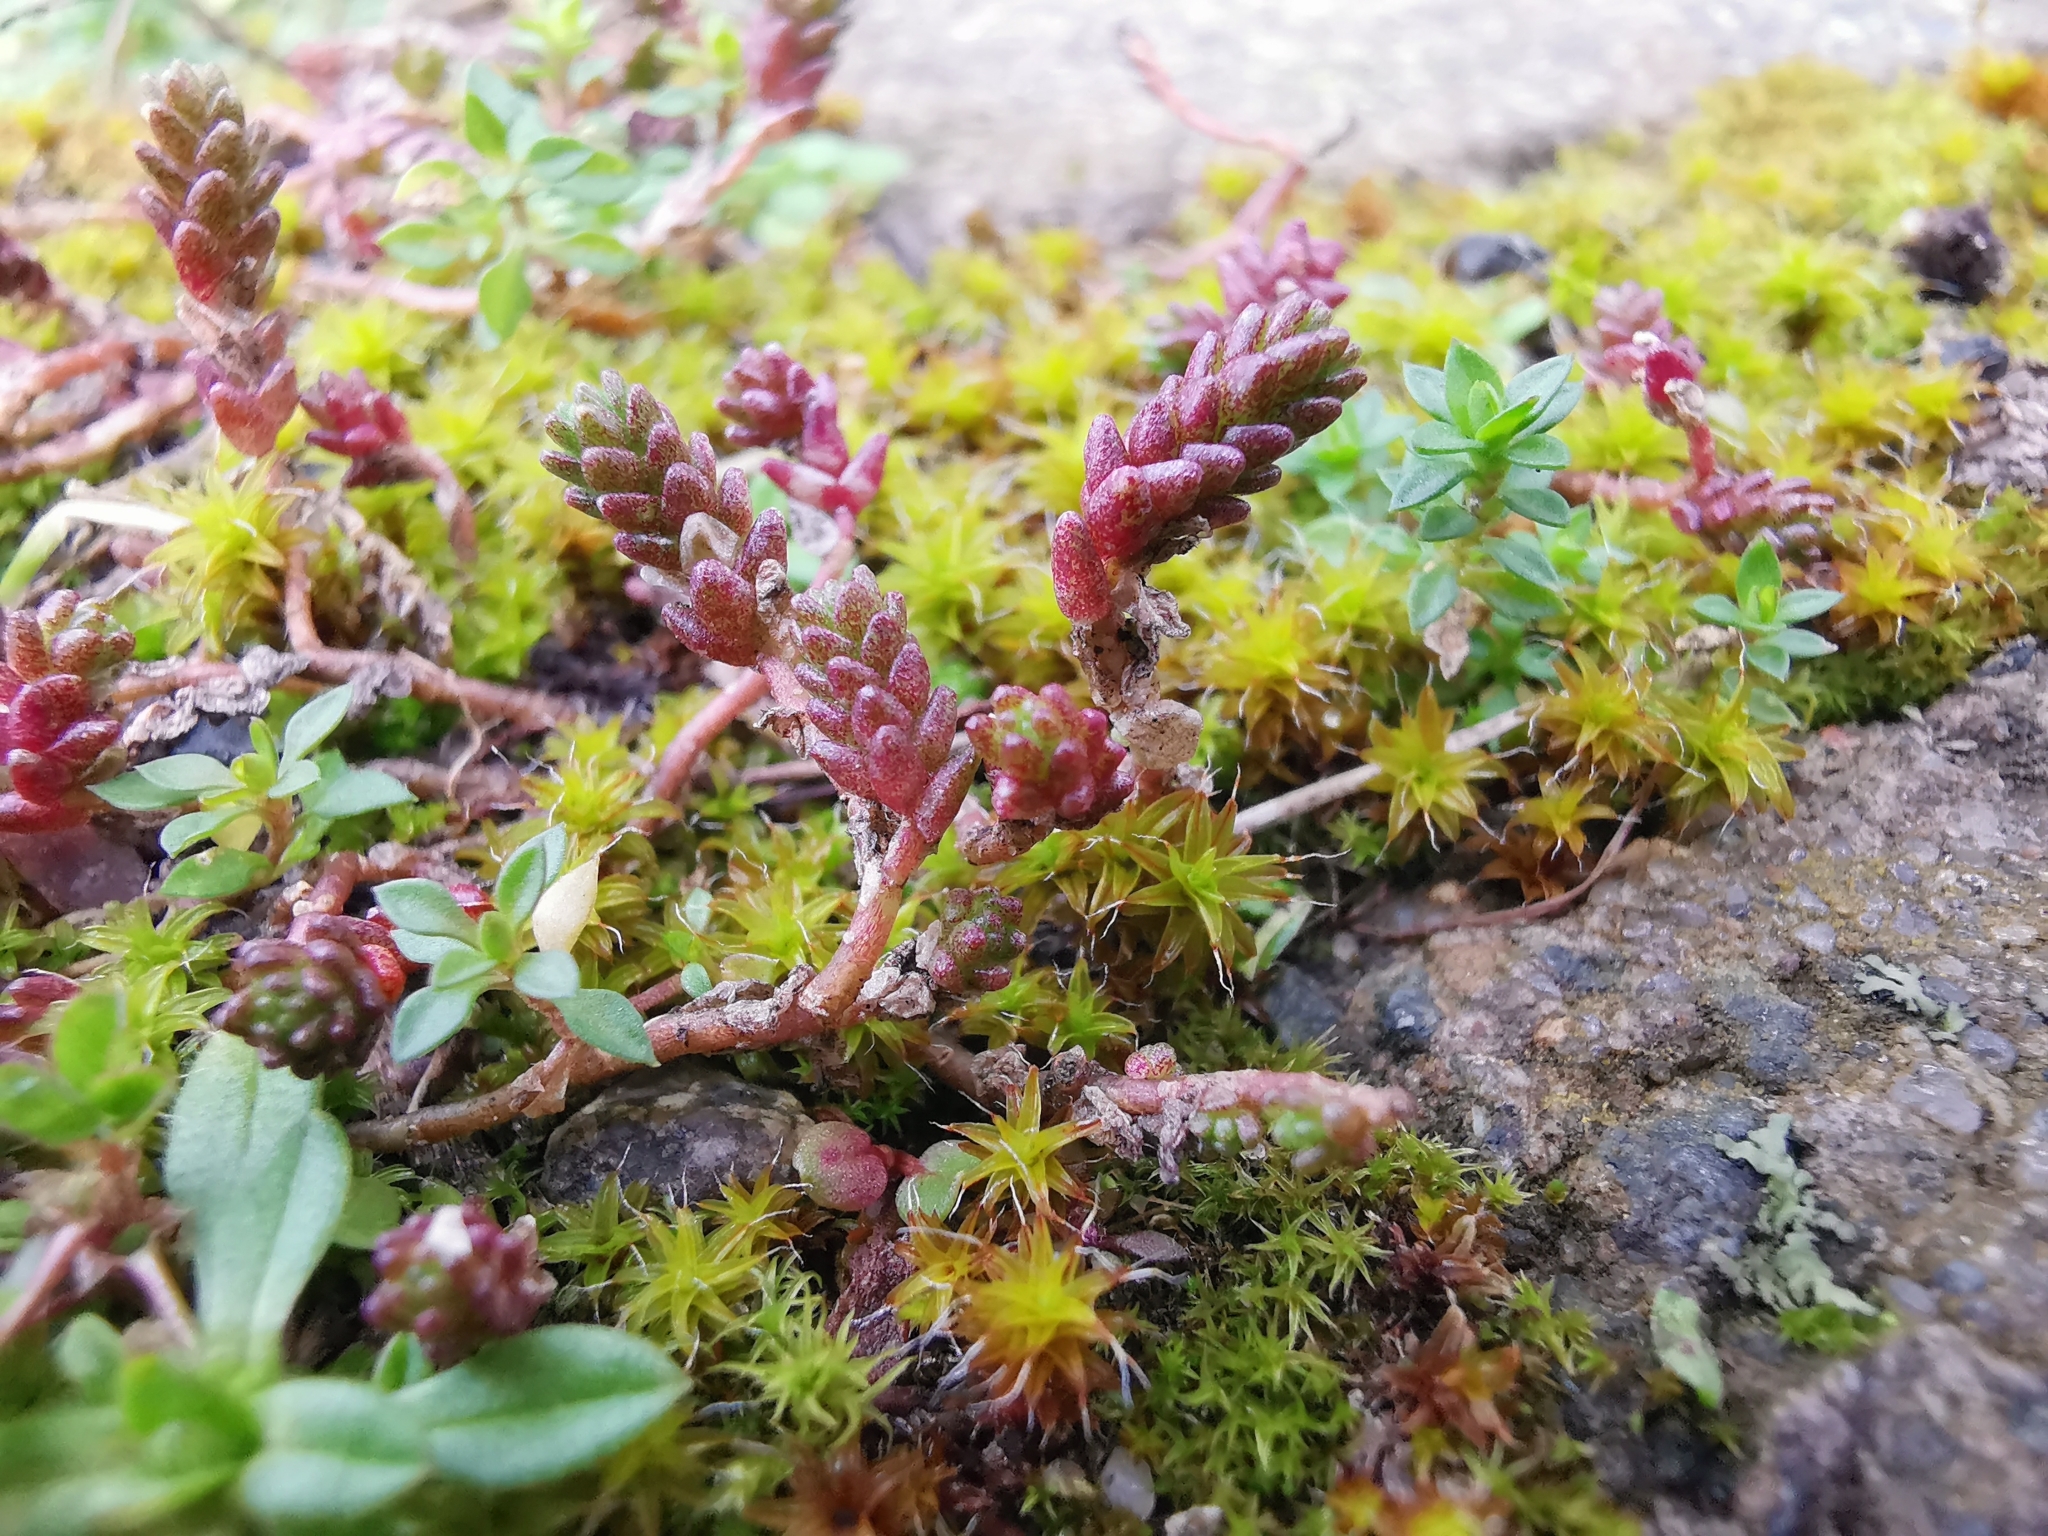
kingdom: Plantae
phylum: Tracheophyta
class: Magnoliopsida
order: Saxifragales
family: Crassulaceae
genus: Sedum
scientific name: Sedum acre
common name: Biting stonecrop
